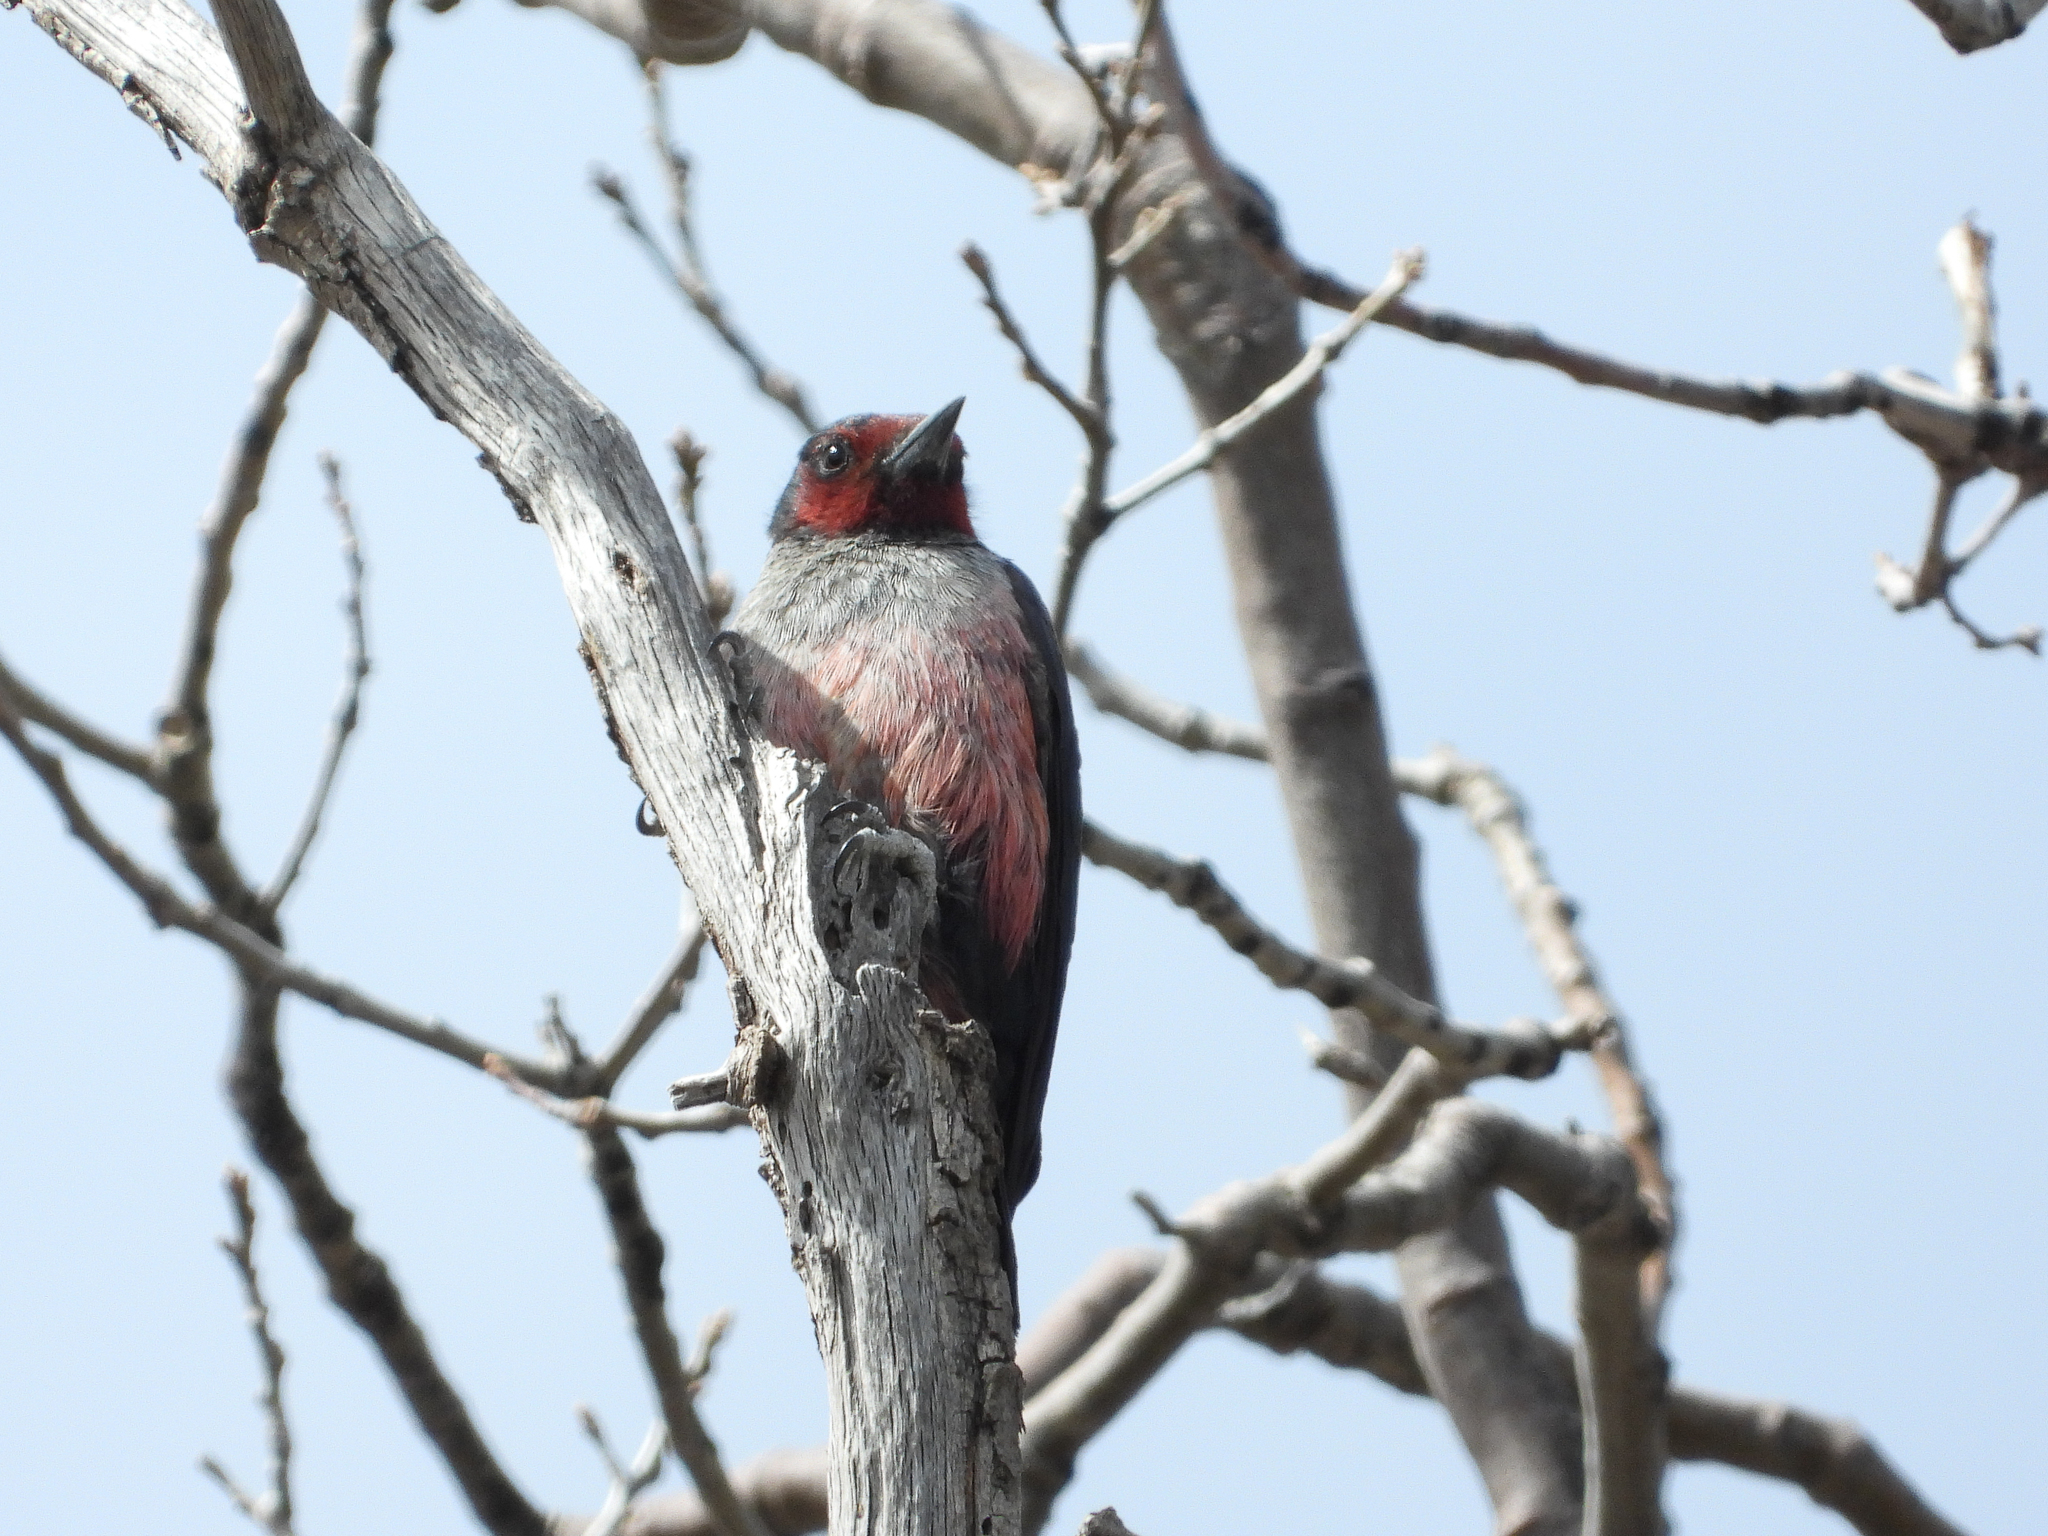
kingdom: Animalia
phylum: Chordata
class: Aves
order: Piciformes
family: Picidae
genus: Melanerpes
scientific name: Melanerpes lewis
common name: Lewis's woodpecker
